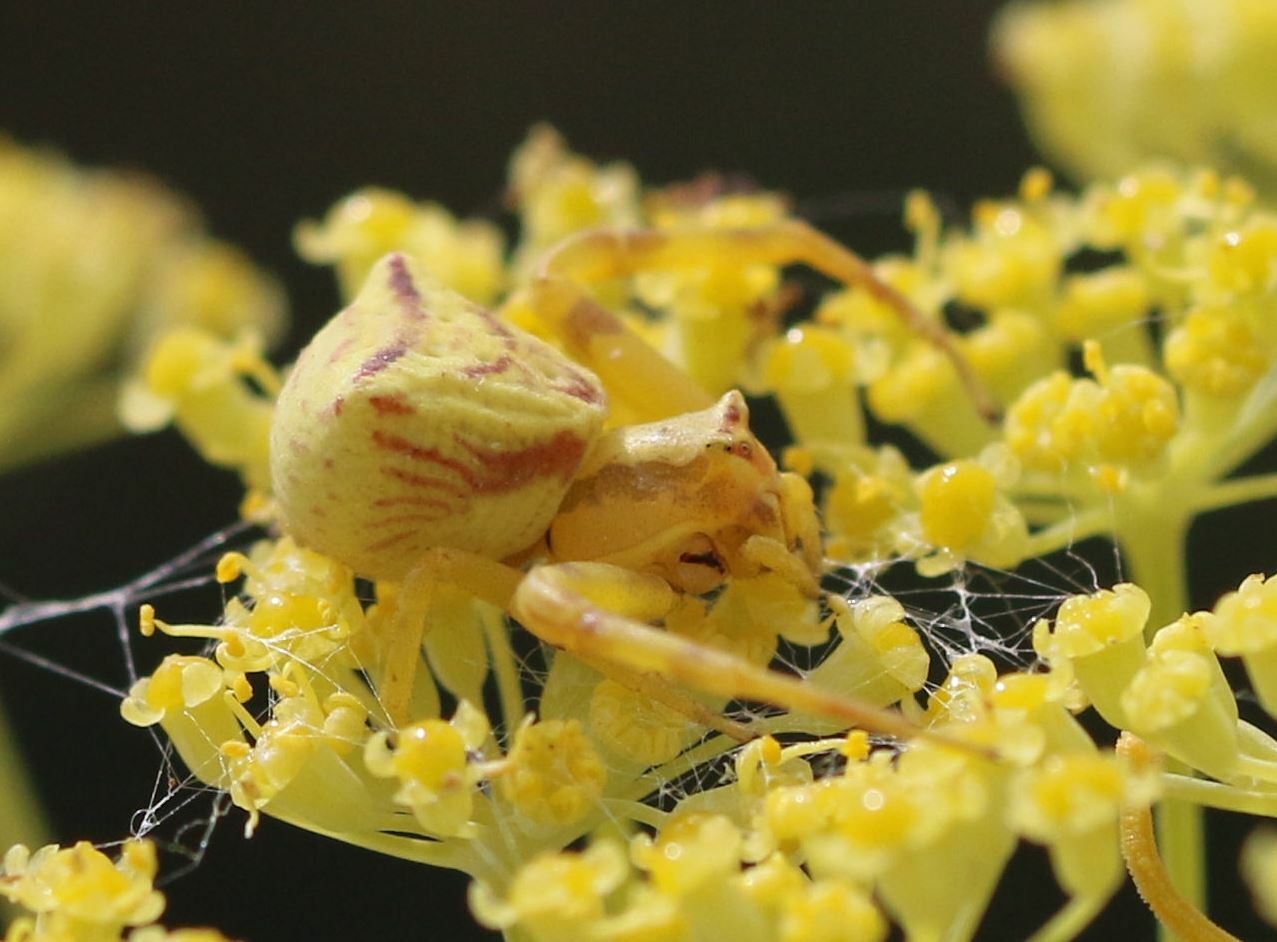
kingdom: Animalia
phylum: Arthropoda
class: Arachnida
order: Araneae
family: Thomisidae
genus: Thomisus
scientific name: Thomisus onustus
